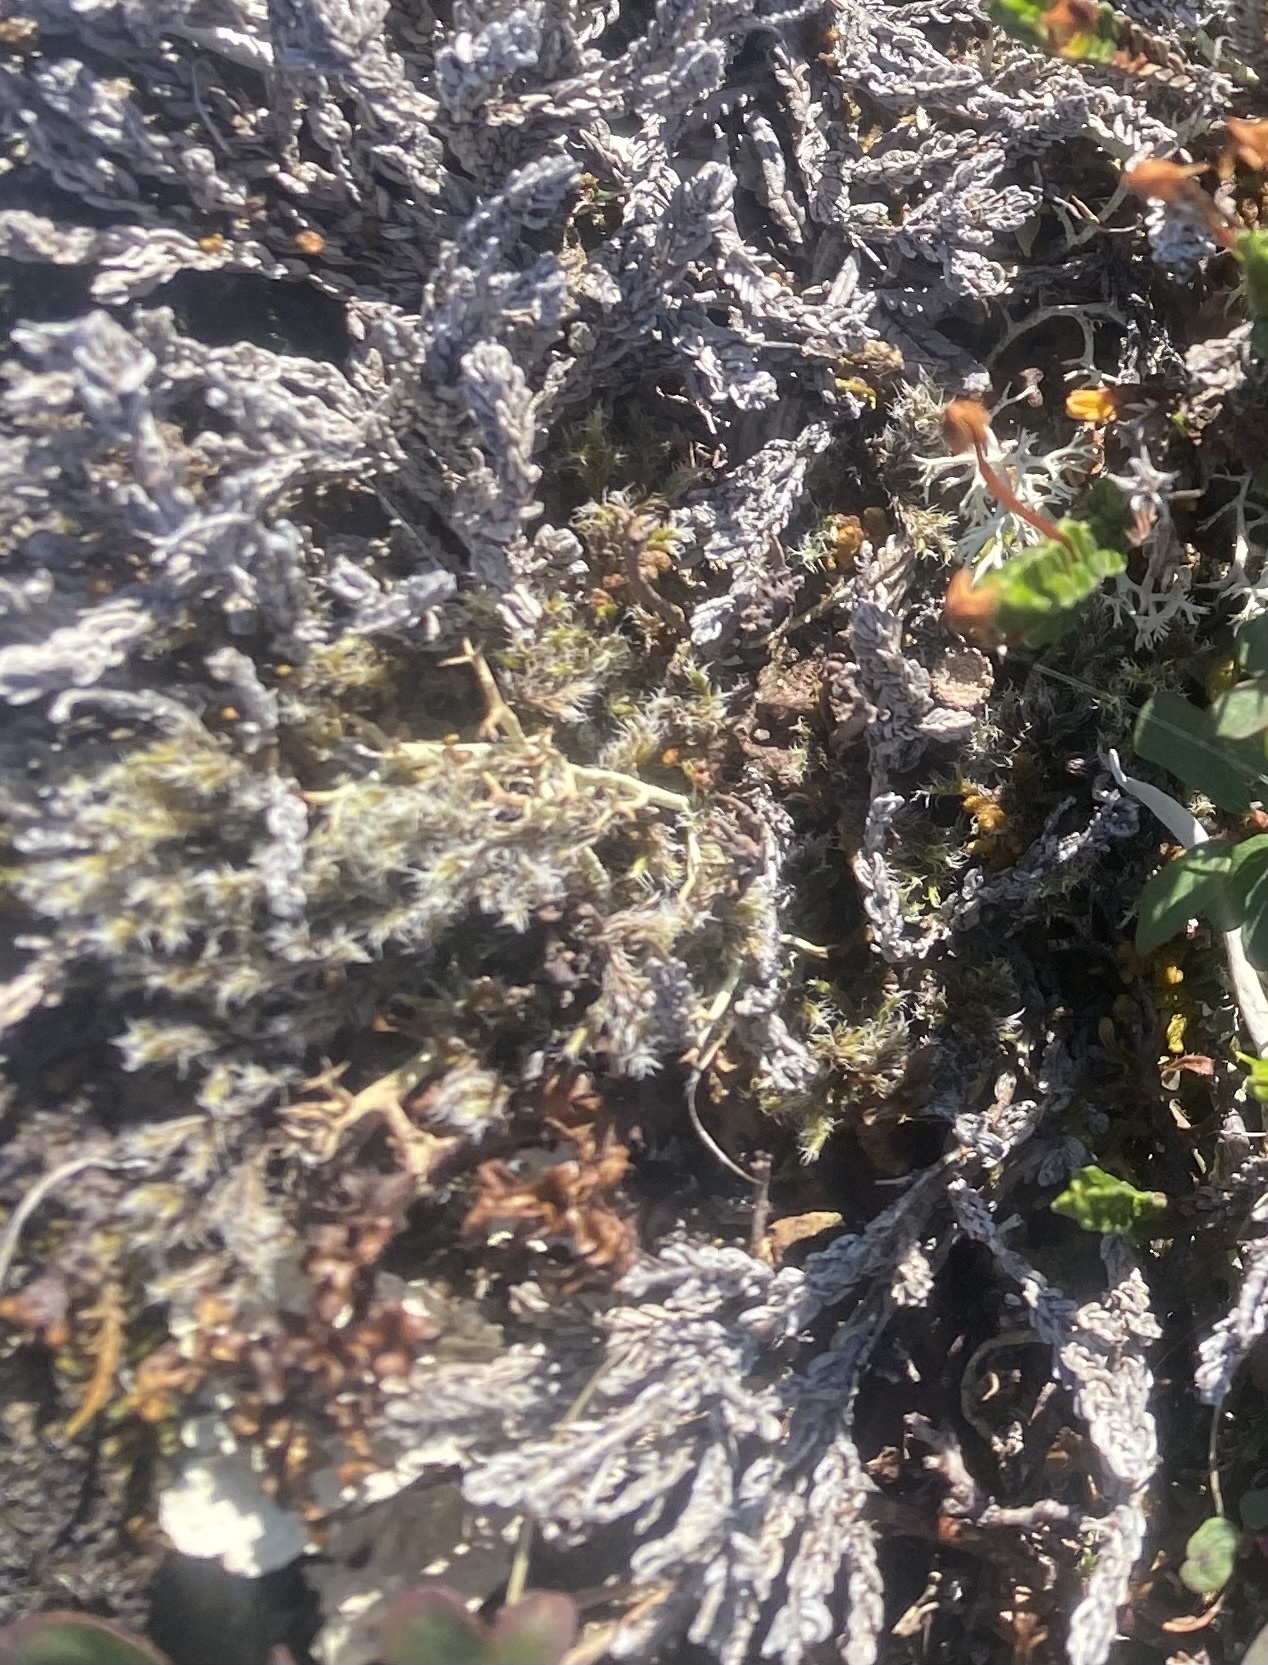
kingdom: Plantae
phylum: Tracheophyta
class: Magnoliopsida
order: Ericales
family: Ericaceae
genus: Cassiope
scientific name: Cassiope tetragona
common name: Arctic bell heather
